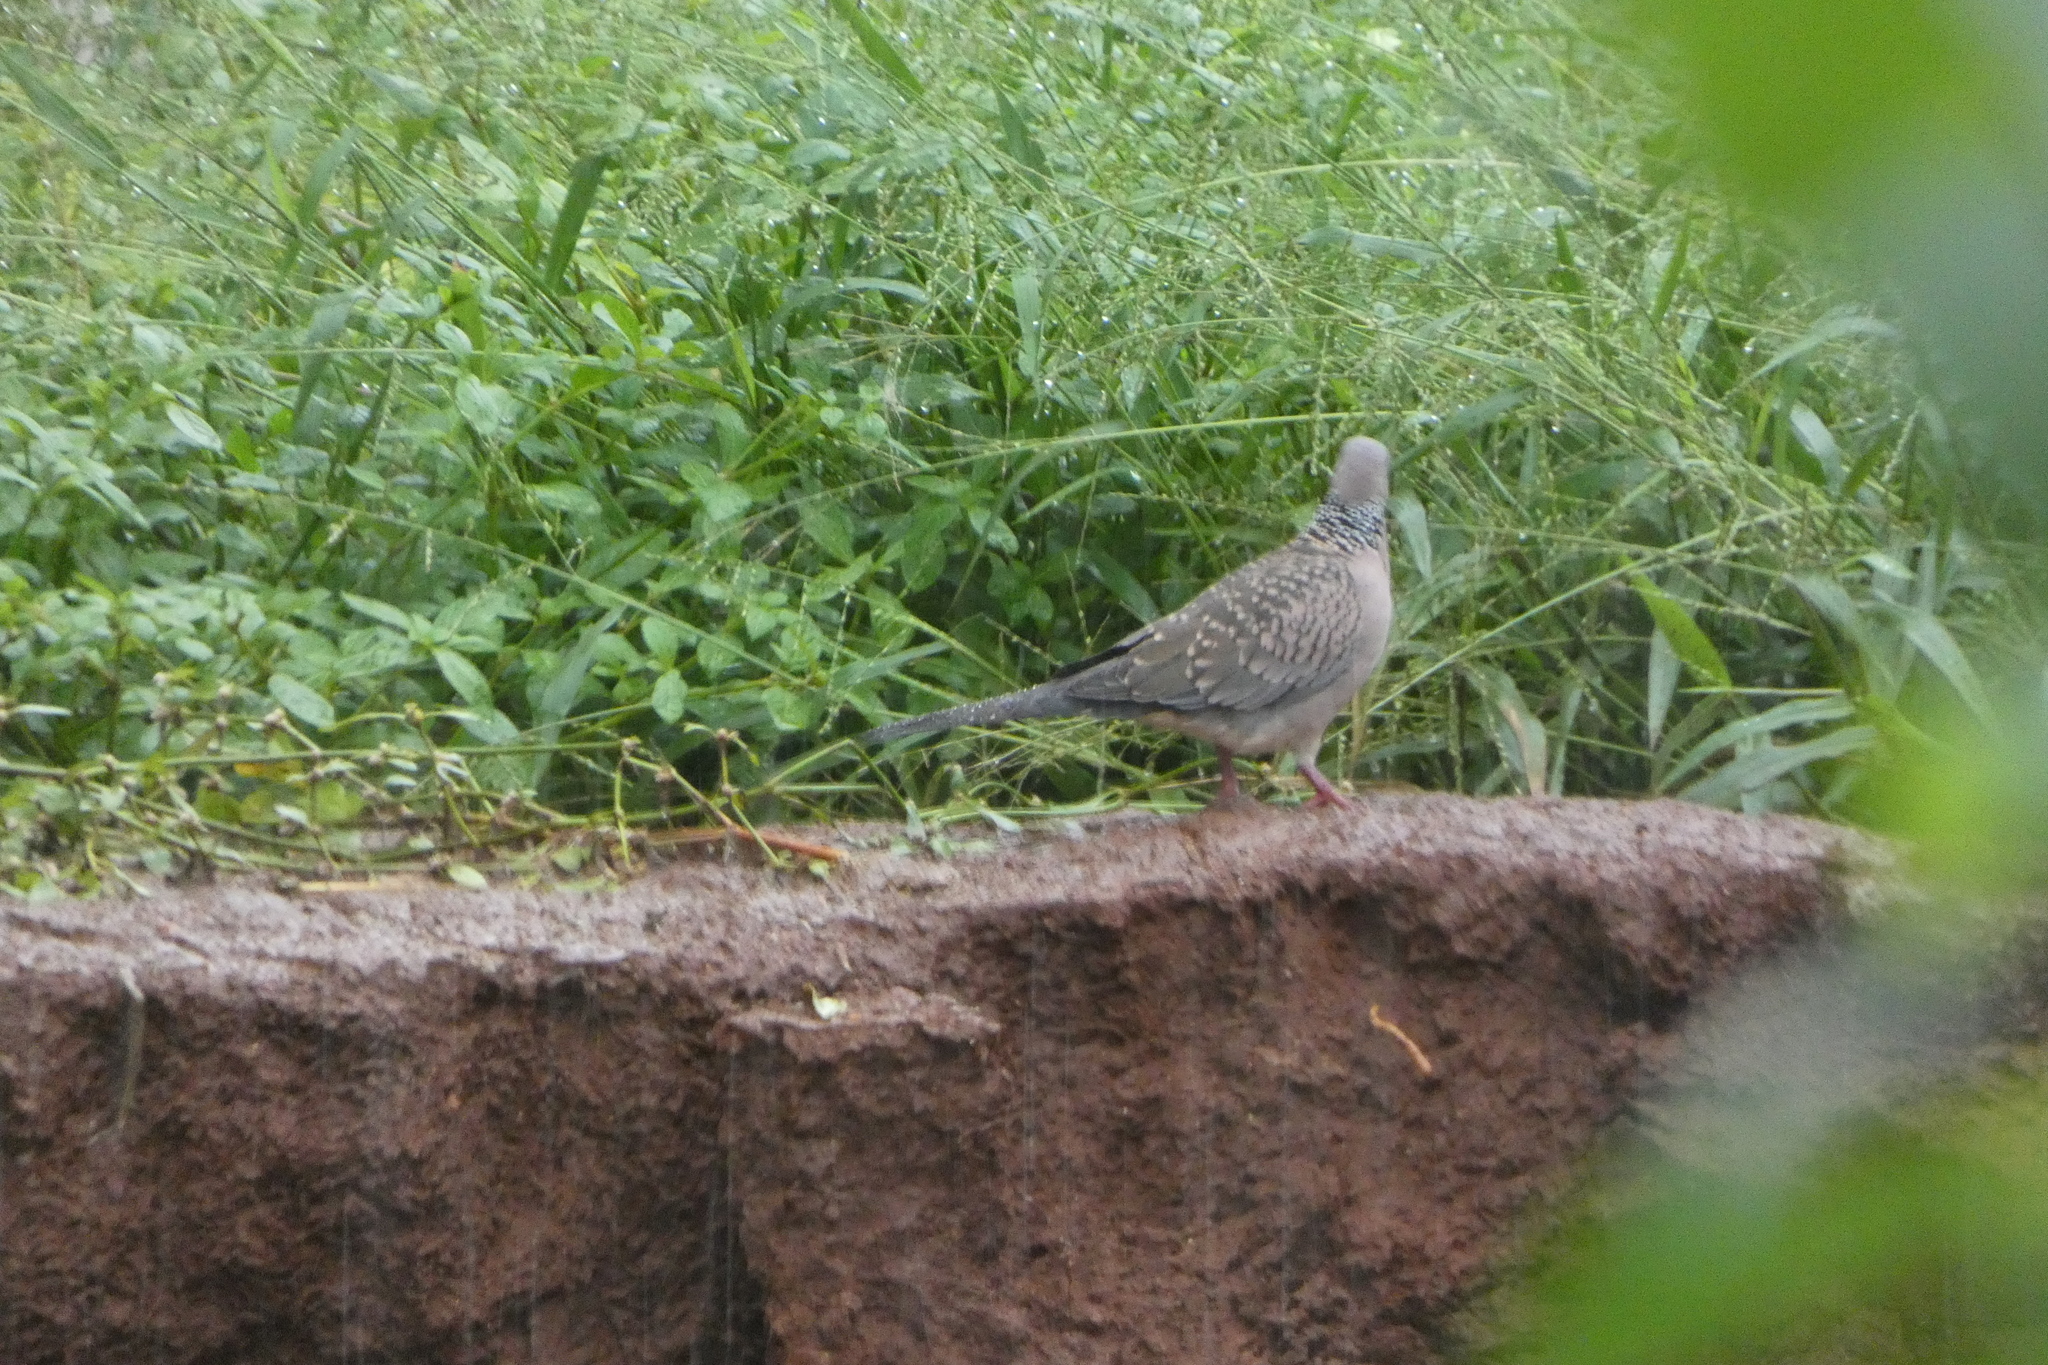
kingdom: Animalia
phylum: Chordata
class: Aves
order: Columbiformes
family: Columbidae
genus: Spilopelia
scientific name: Spilopelia chinensis
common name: Spotted dove
